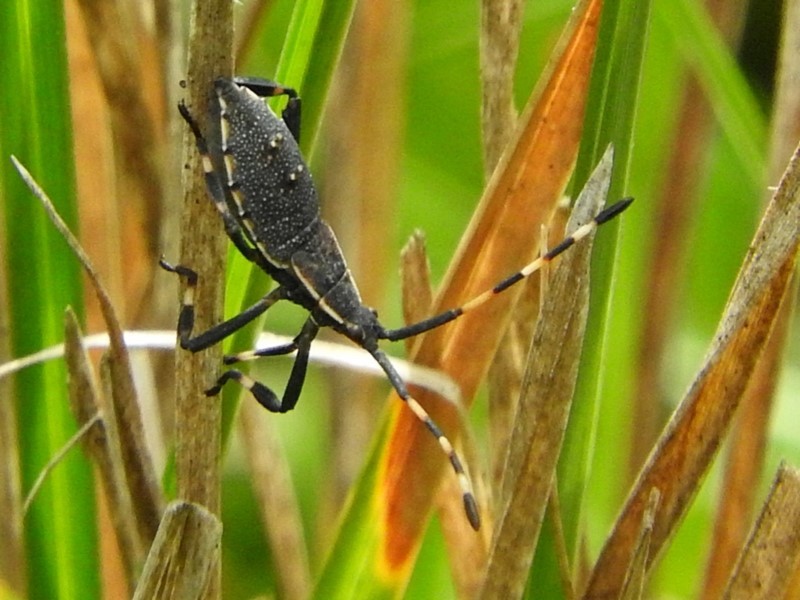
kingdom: Animalia
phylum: Arthropoda
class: Insecta
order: Hemiptera
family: Coreidae
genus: Gelonus
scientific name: Gelonus tasmanicus
